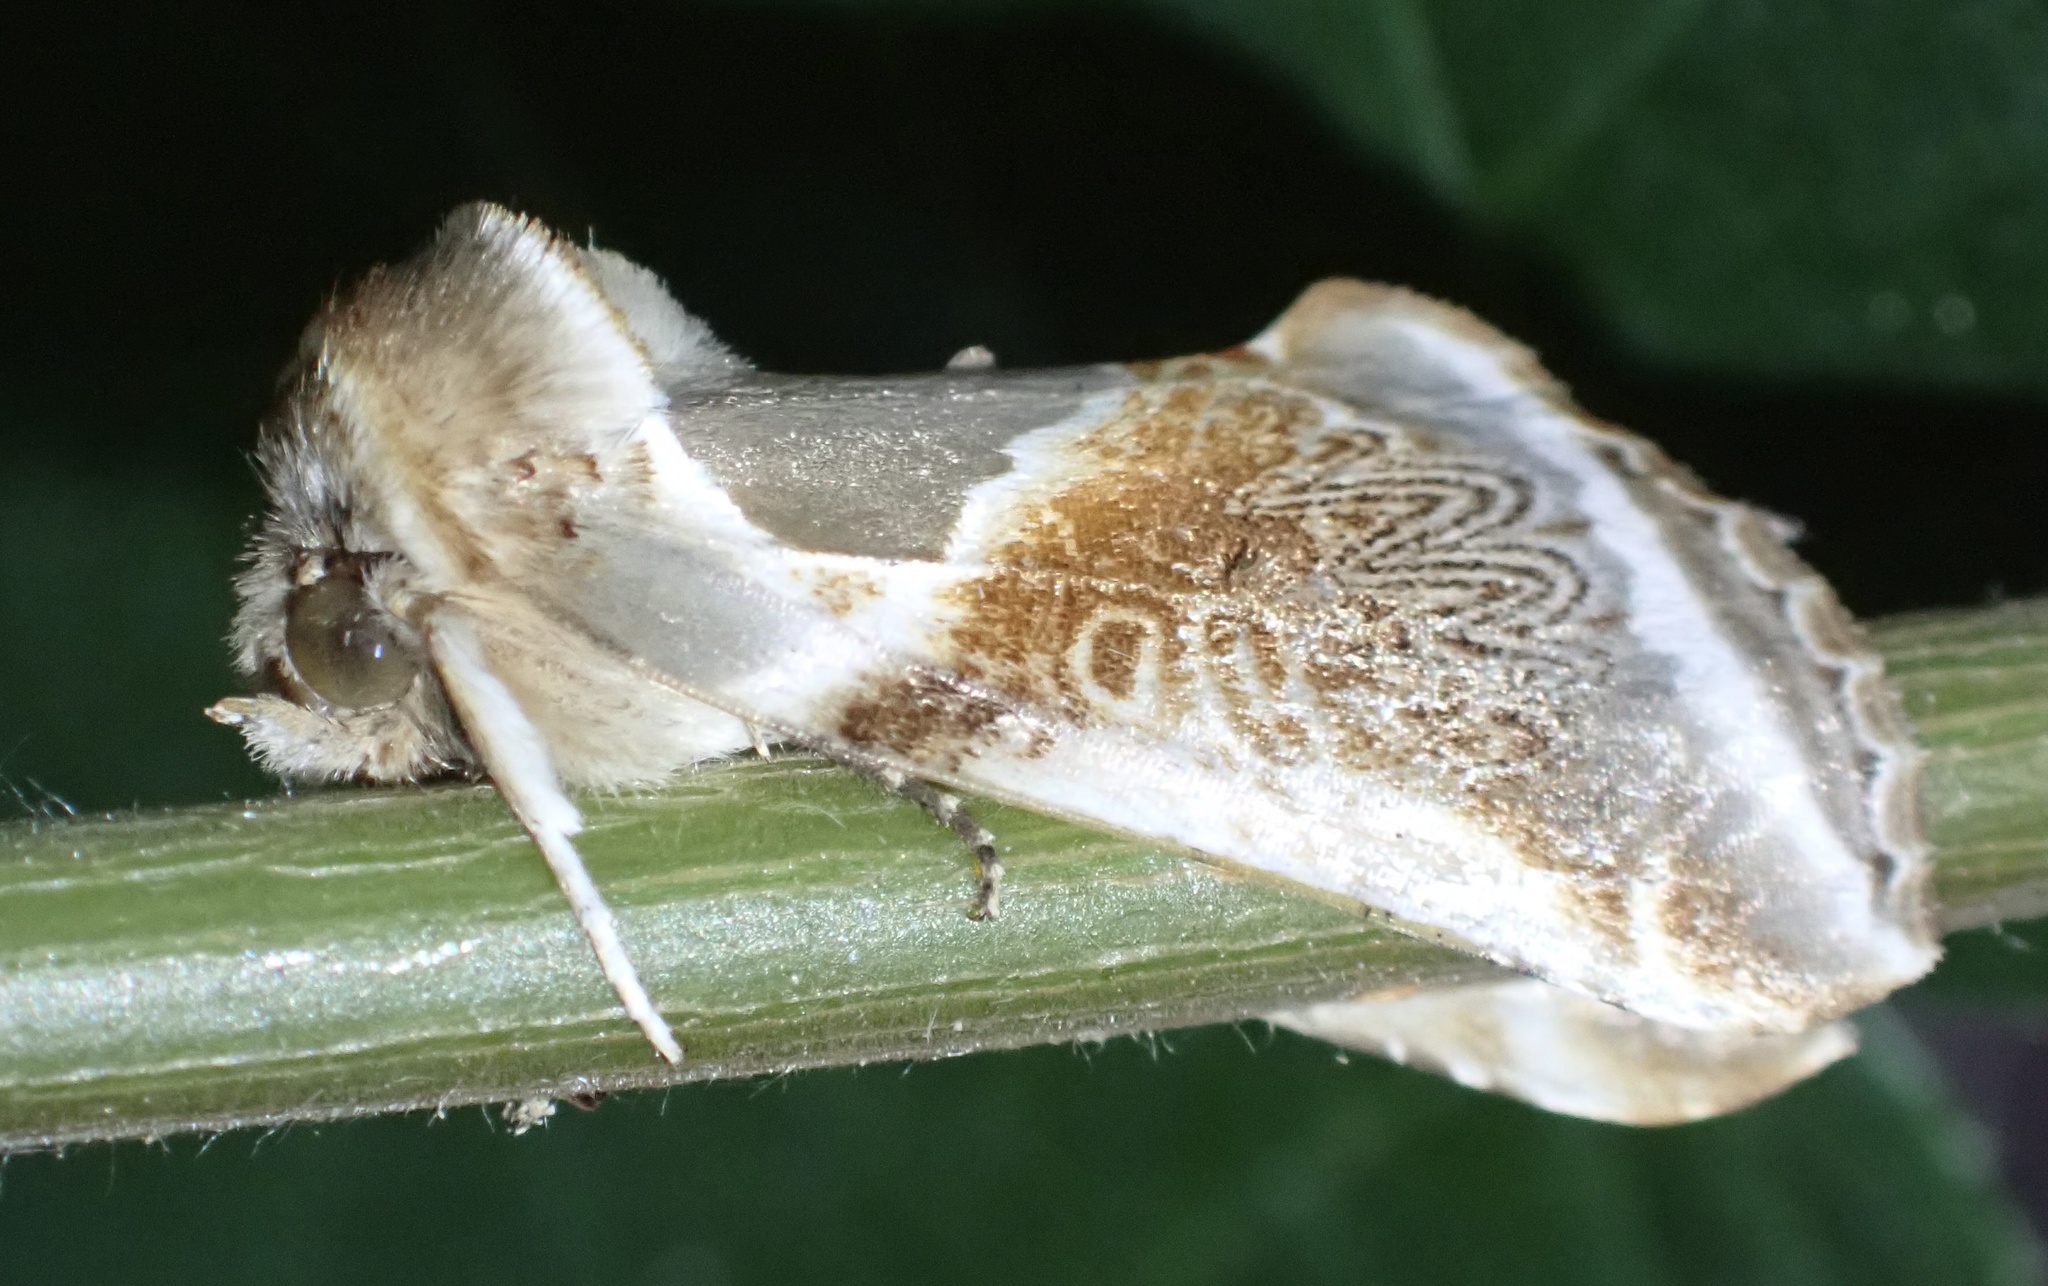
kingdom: Animalia
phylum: Arthropoda
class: Insecta
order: Lepidoptera
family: Drepanidae
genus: Habrosyne
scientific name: Habrosyne pyritoides
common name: Buff arches
